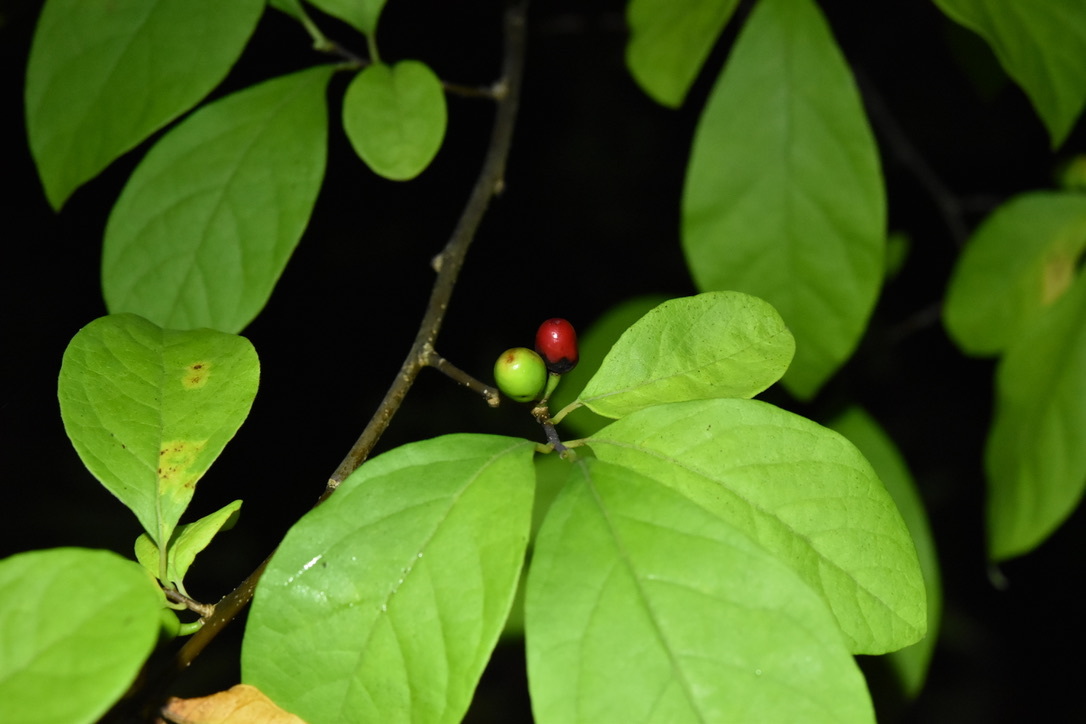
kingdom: Plantae
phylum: Tracheophyta
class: Magnoliopsida
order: Laurales
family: Lauraceae
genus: Lindera
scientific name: Lindera benzoin
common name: Spicebush
